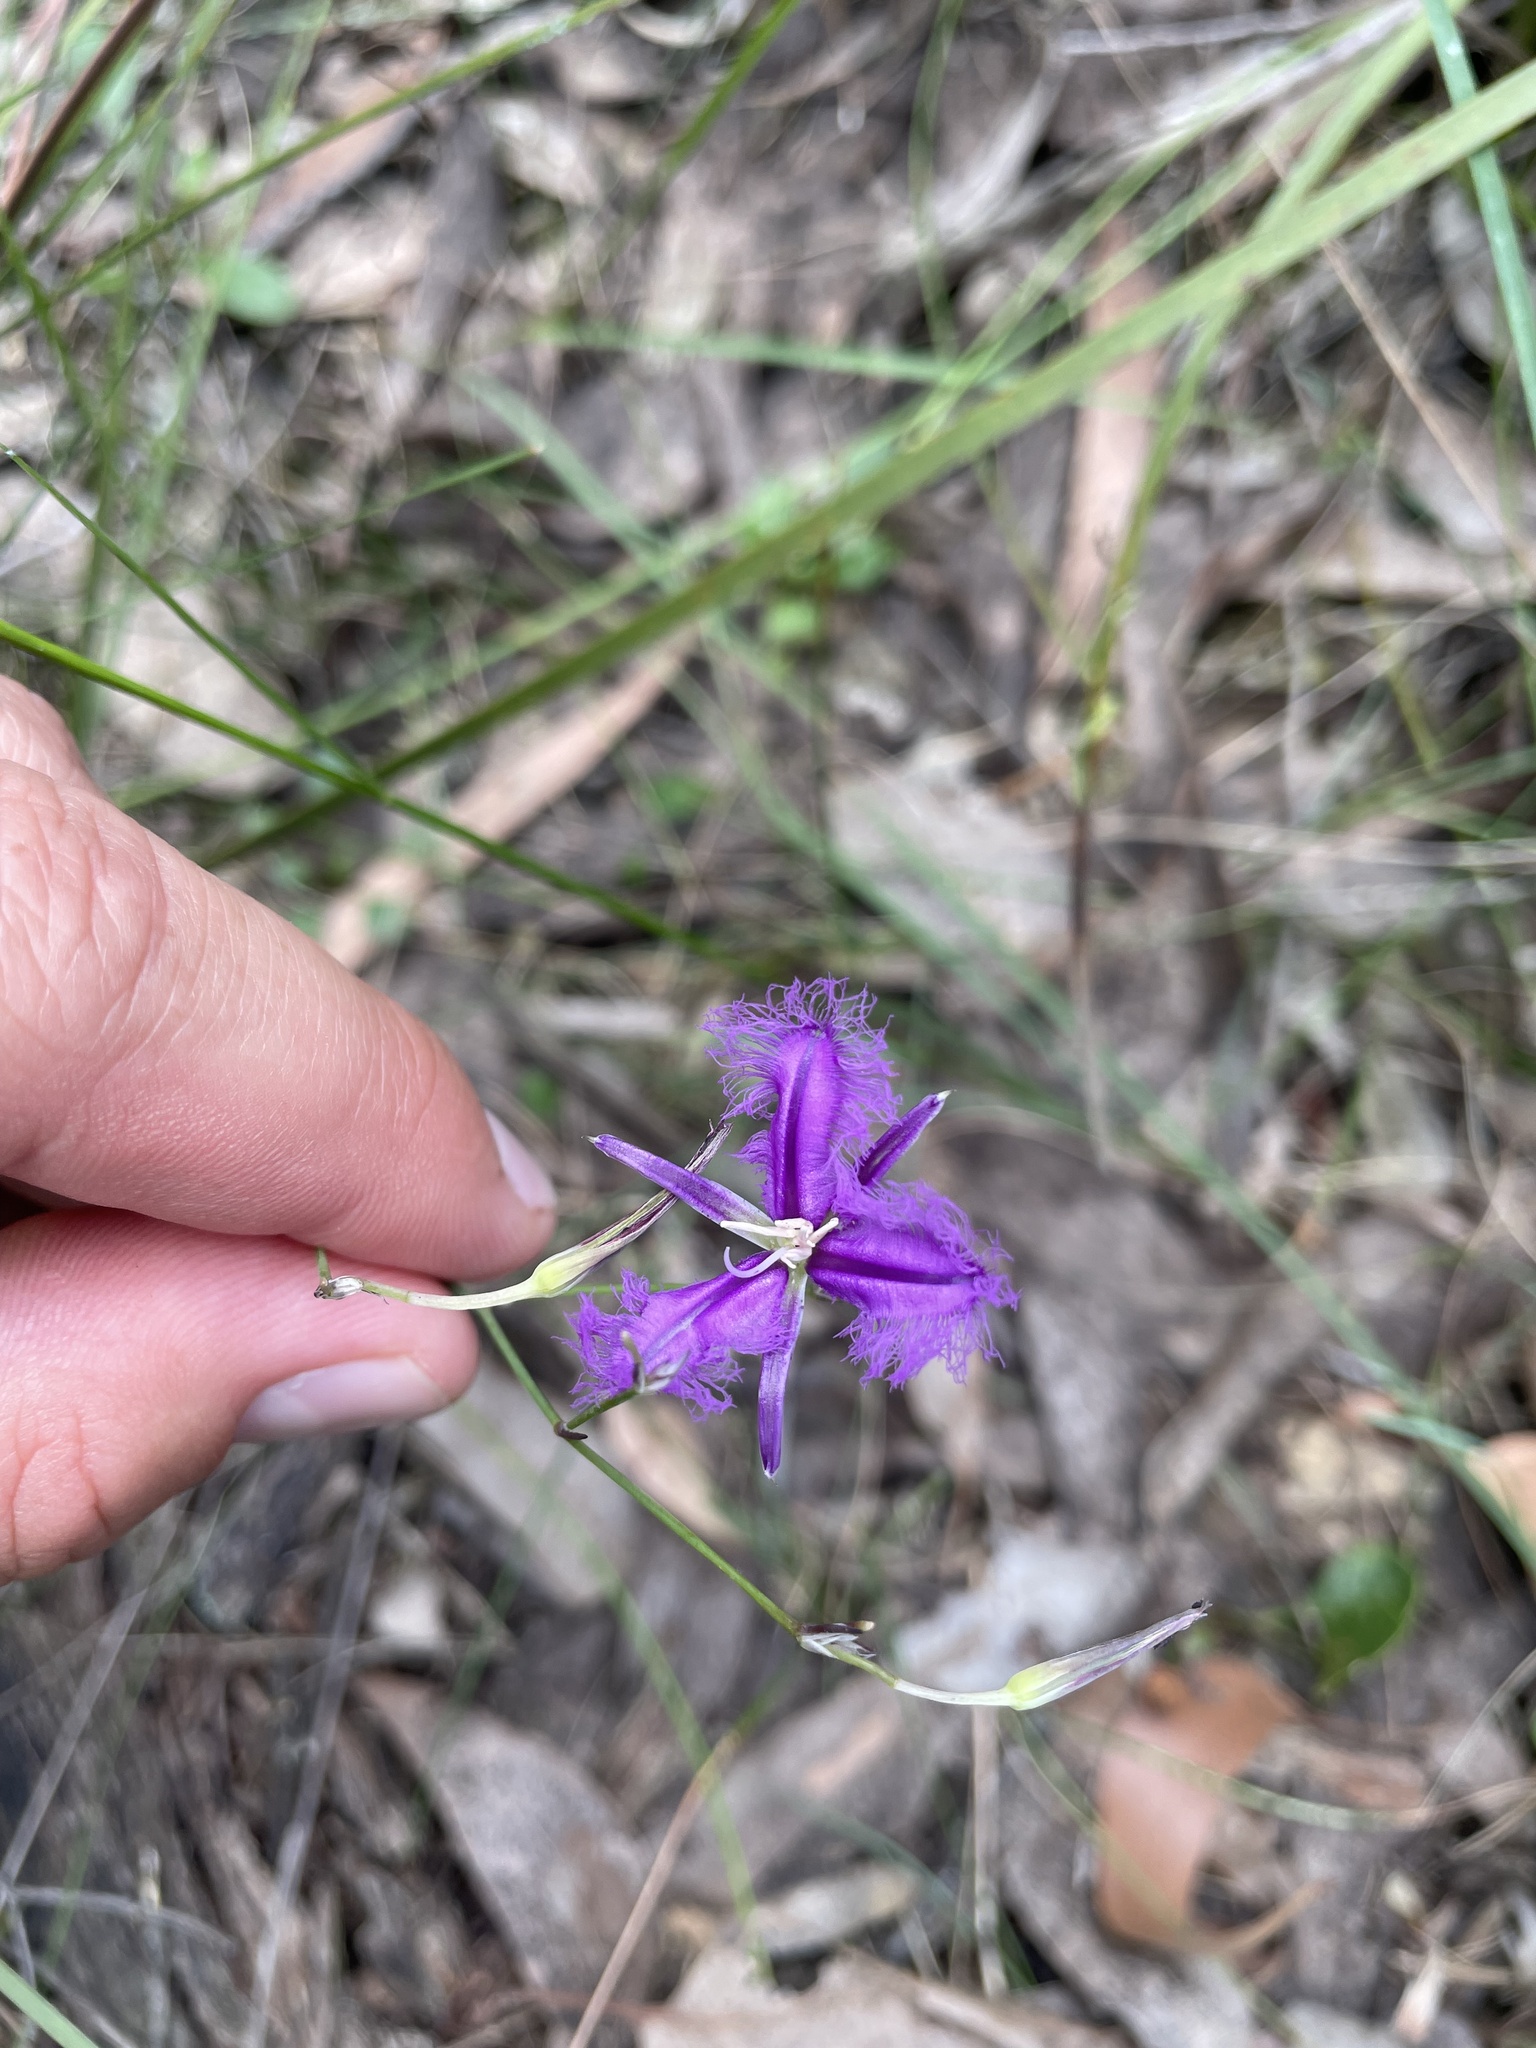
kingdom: Plantae
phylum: Tracheophyta
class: Liliopsida
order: Asparagales
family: Asparagaceae
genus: Thysanotus
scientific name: Thysanotus tuberosus
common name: Common fringed-lily
